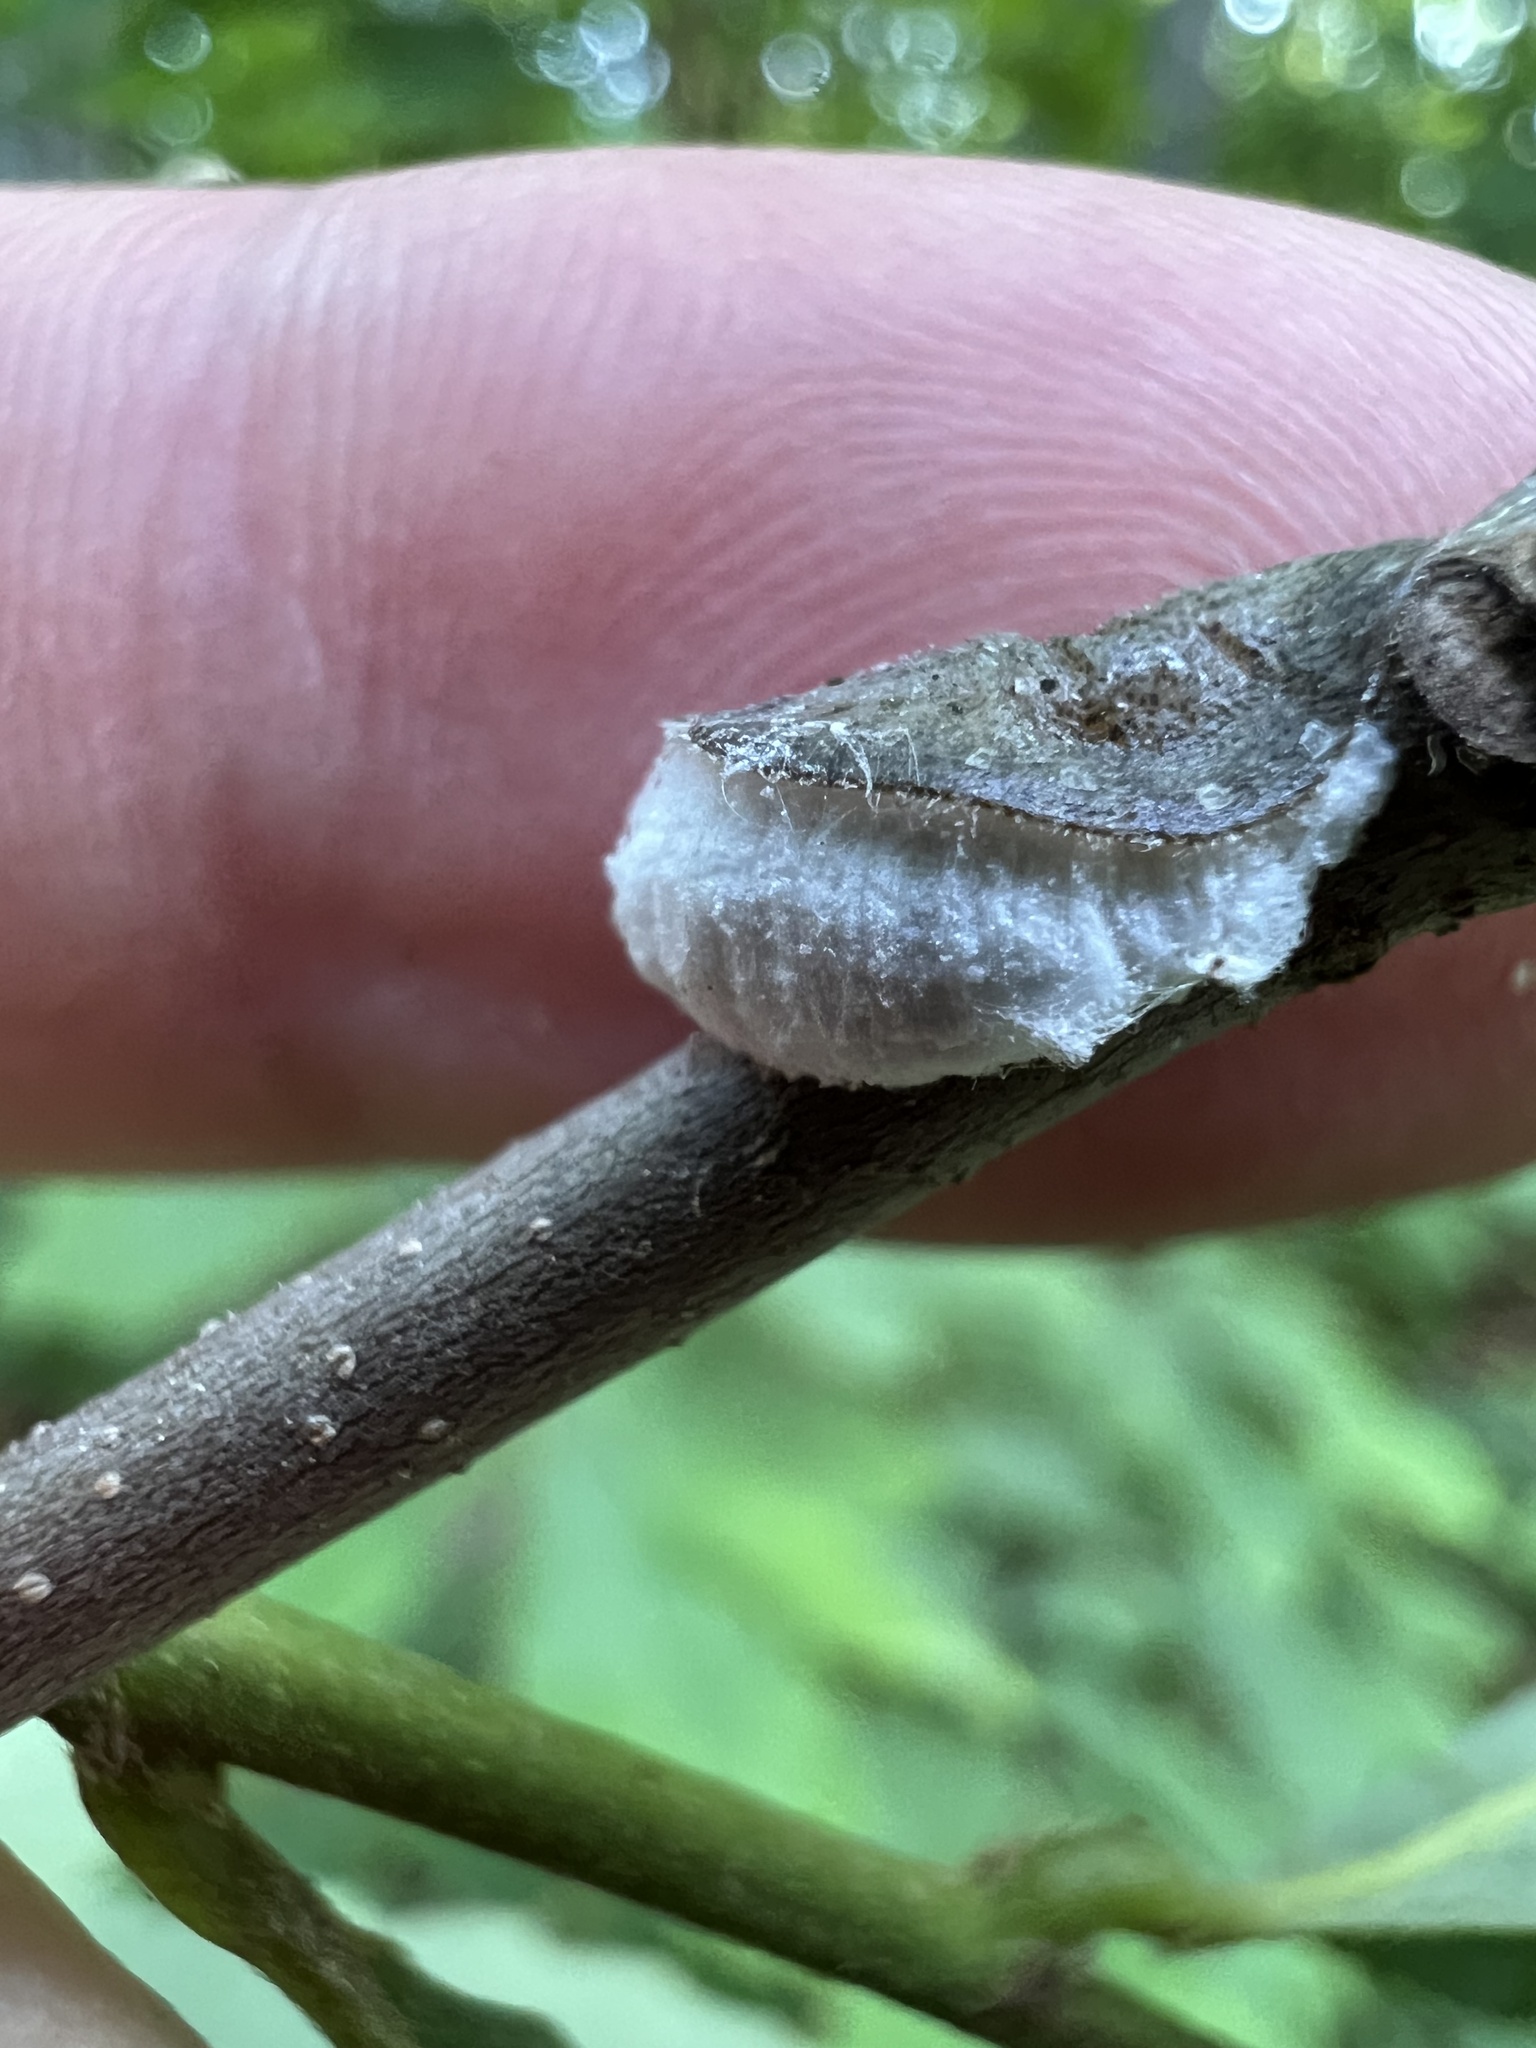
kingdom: Animalia
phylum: Arthropoda
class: Insecta
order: Hemiptera
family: Coccidae
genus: Neopulvinaria
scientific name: Neopulvinaria innumerabilis
